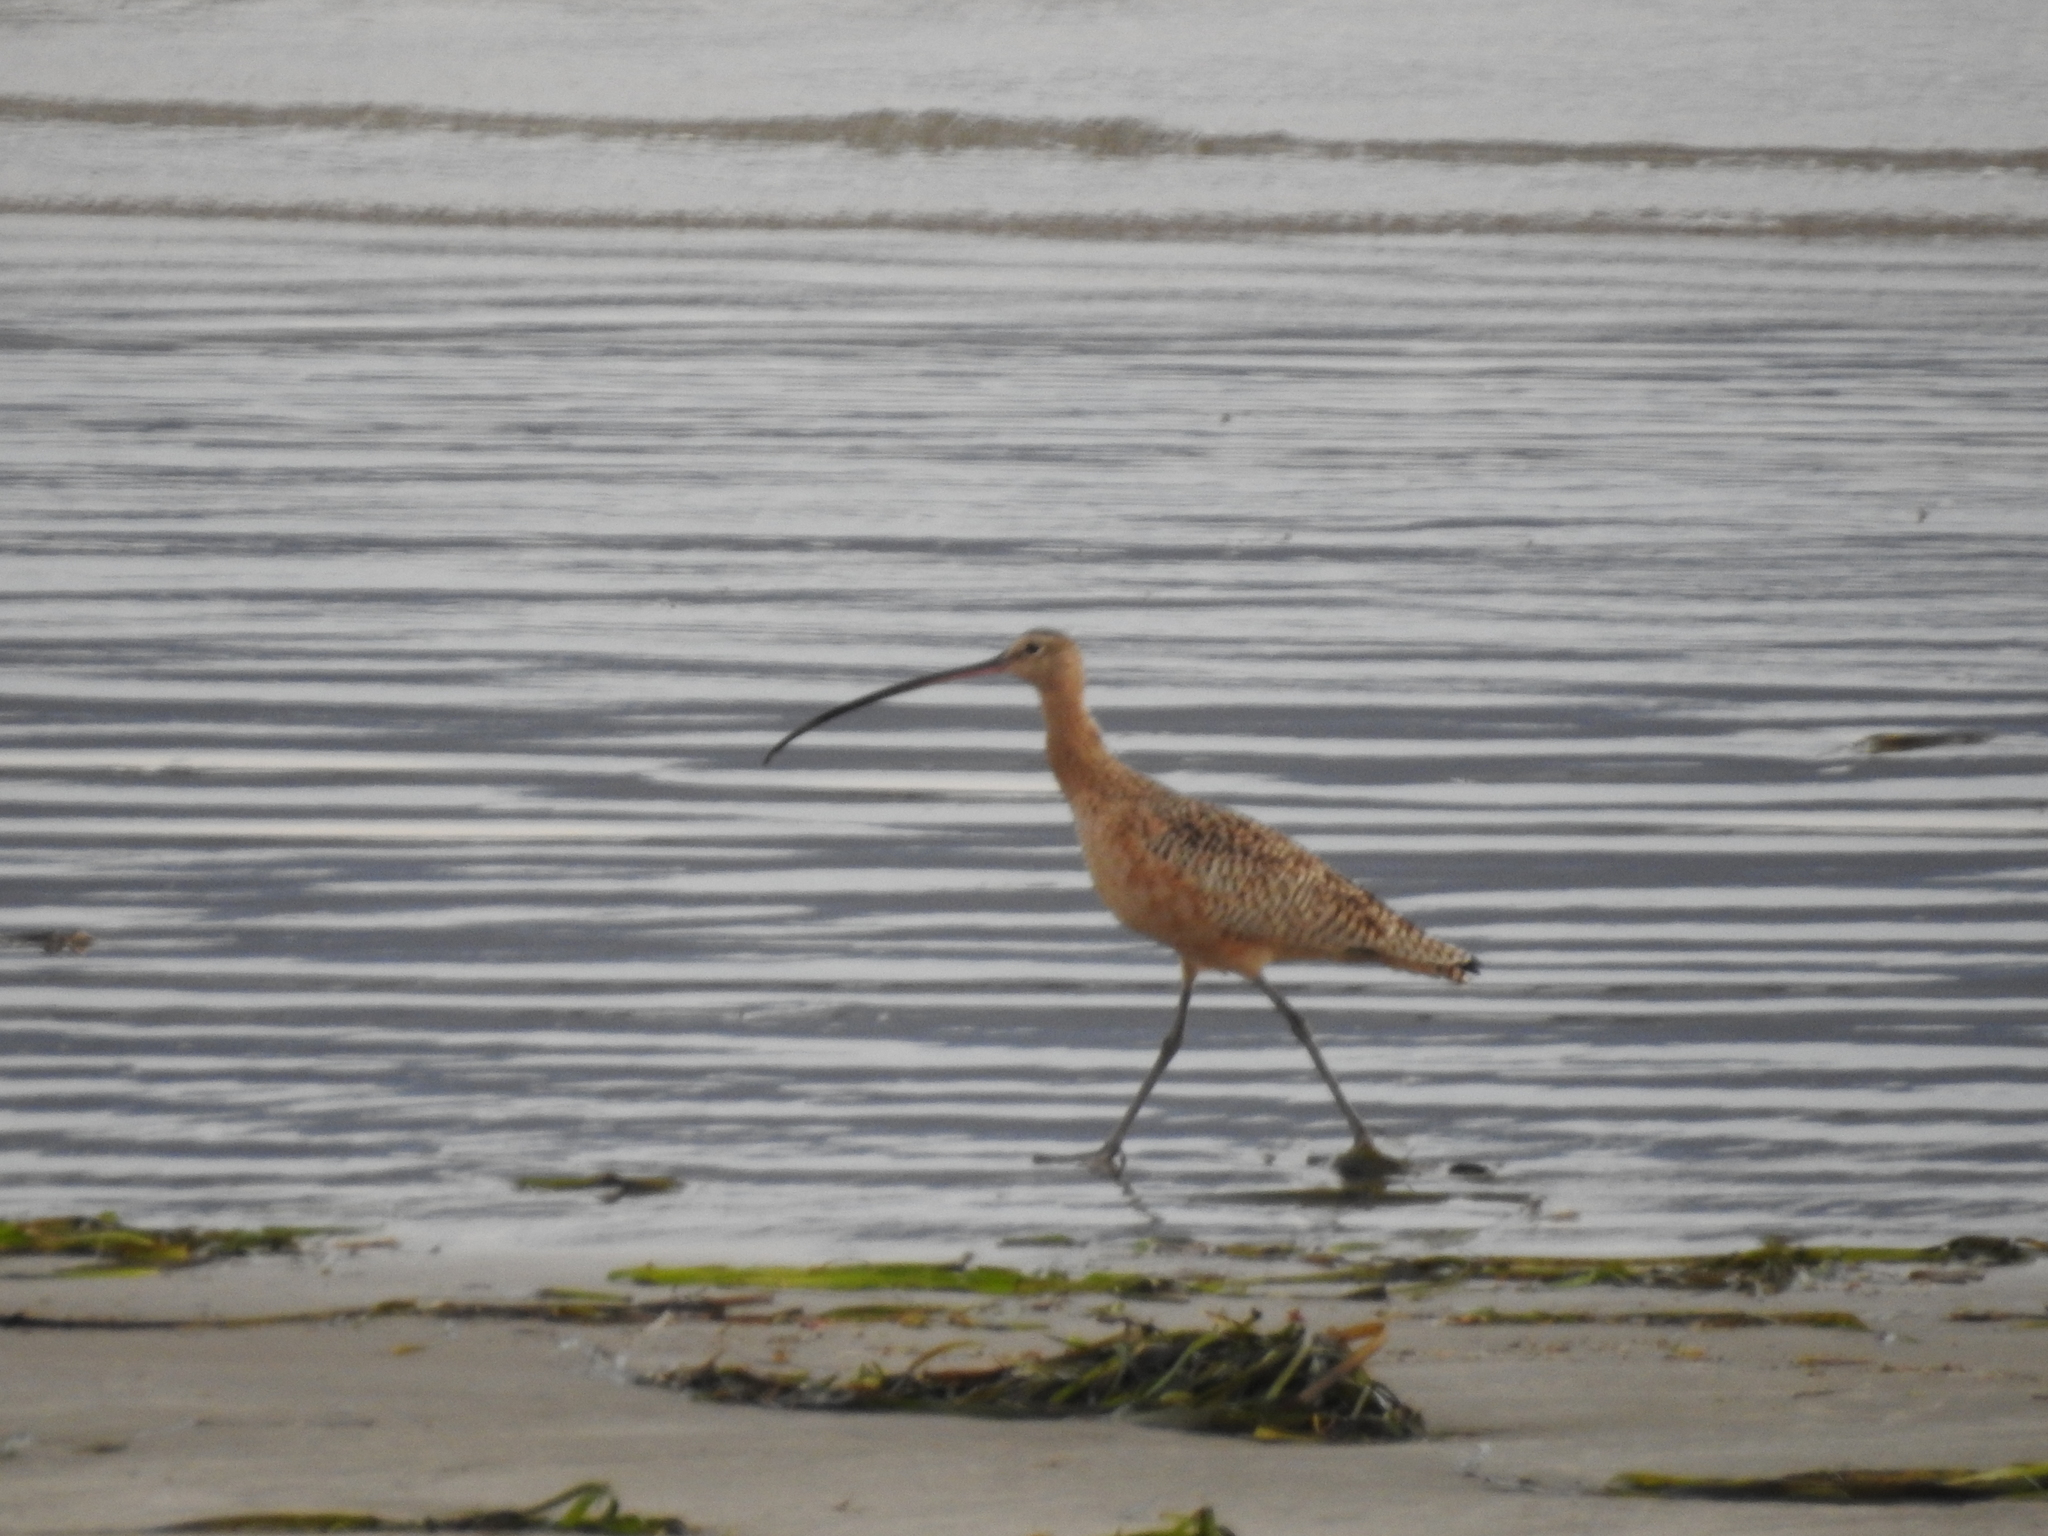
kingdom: Animalia
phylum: Chordata
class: Aves
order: Charadriiformes
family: Scolopacidae
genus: Numenius
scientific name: Numenius americanus
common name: Long-billed curlew
